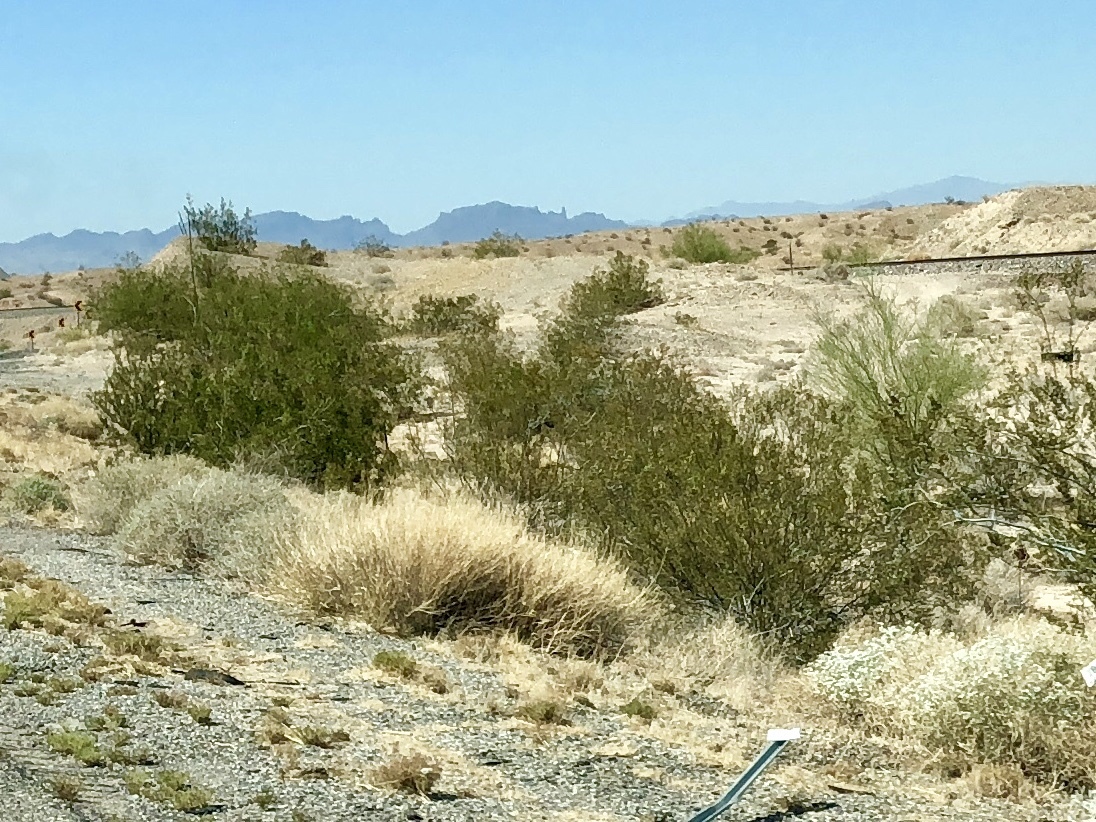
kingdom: Plantae
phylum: Tracheophyta
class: Magnoliopsida
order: Zygophyllales
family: Zygophyllaceae
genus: Larrea
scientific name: Larrea tridentata
